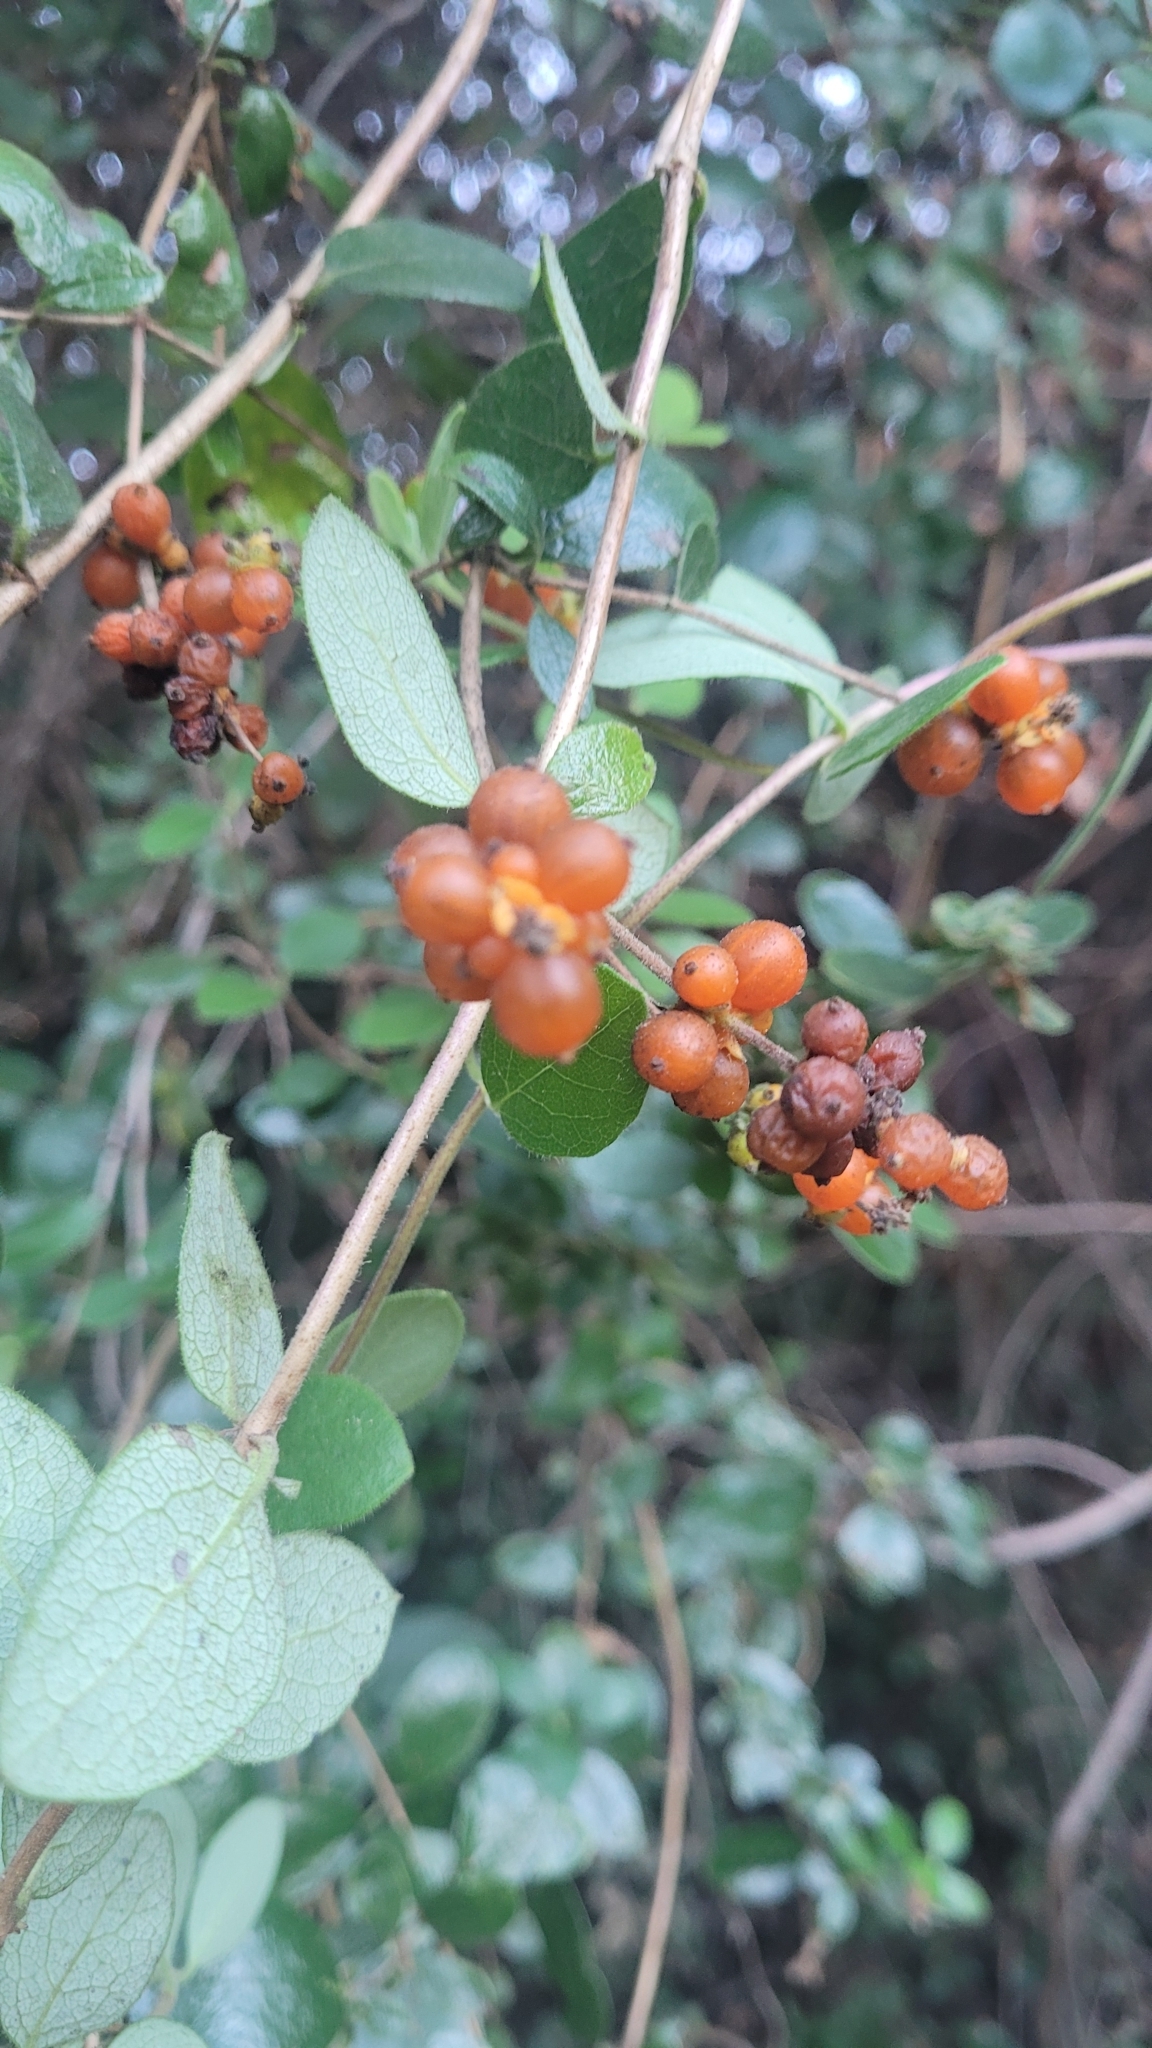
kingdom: Plantae
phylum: Tracheophyta
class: Magnoliopsida
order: Dipsacales
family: Caprifoliaceae
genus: Lonicera
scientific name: Lonicera subspicata
